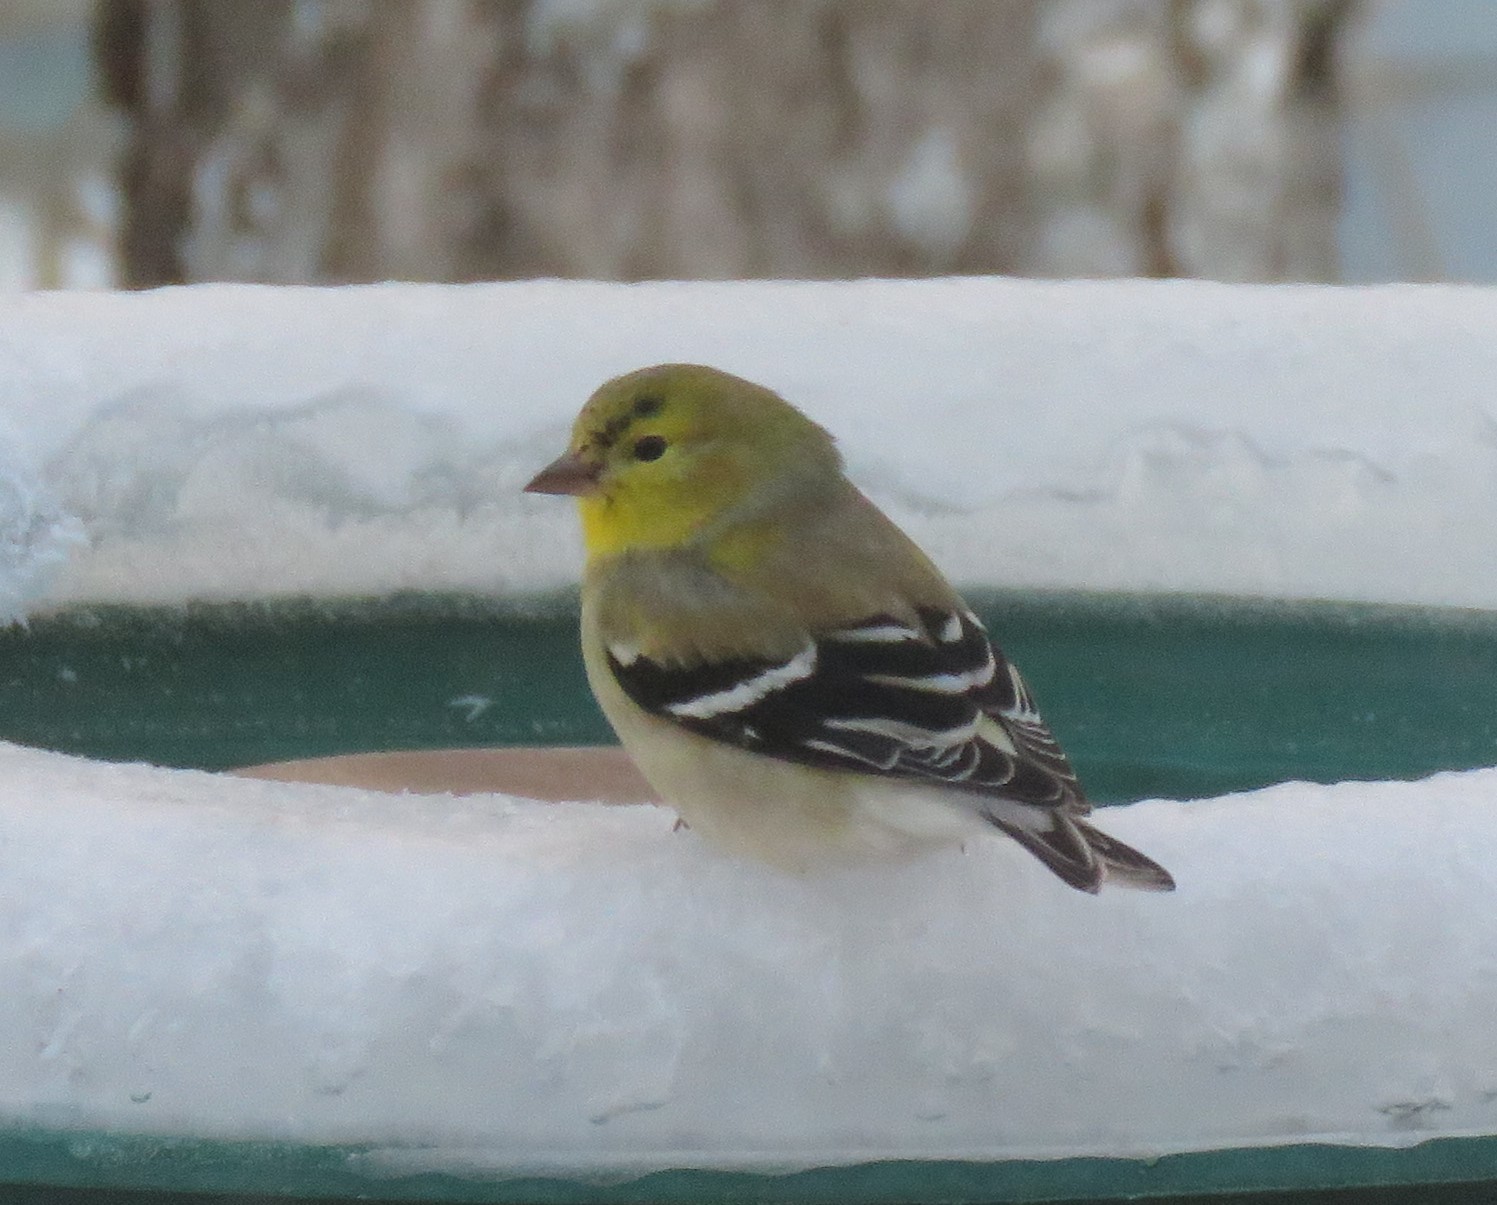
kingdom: Animalia
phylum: Chordata
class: Aves
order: Passeriformes
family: Fringillidae
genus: Spinus
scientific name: Spinus tristis
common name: American goldfinch
